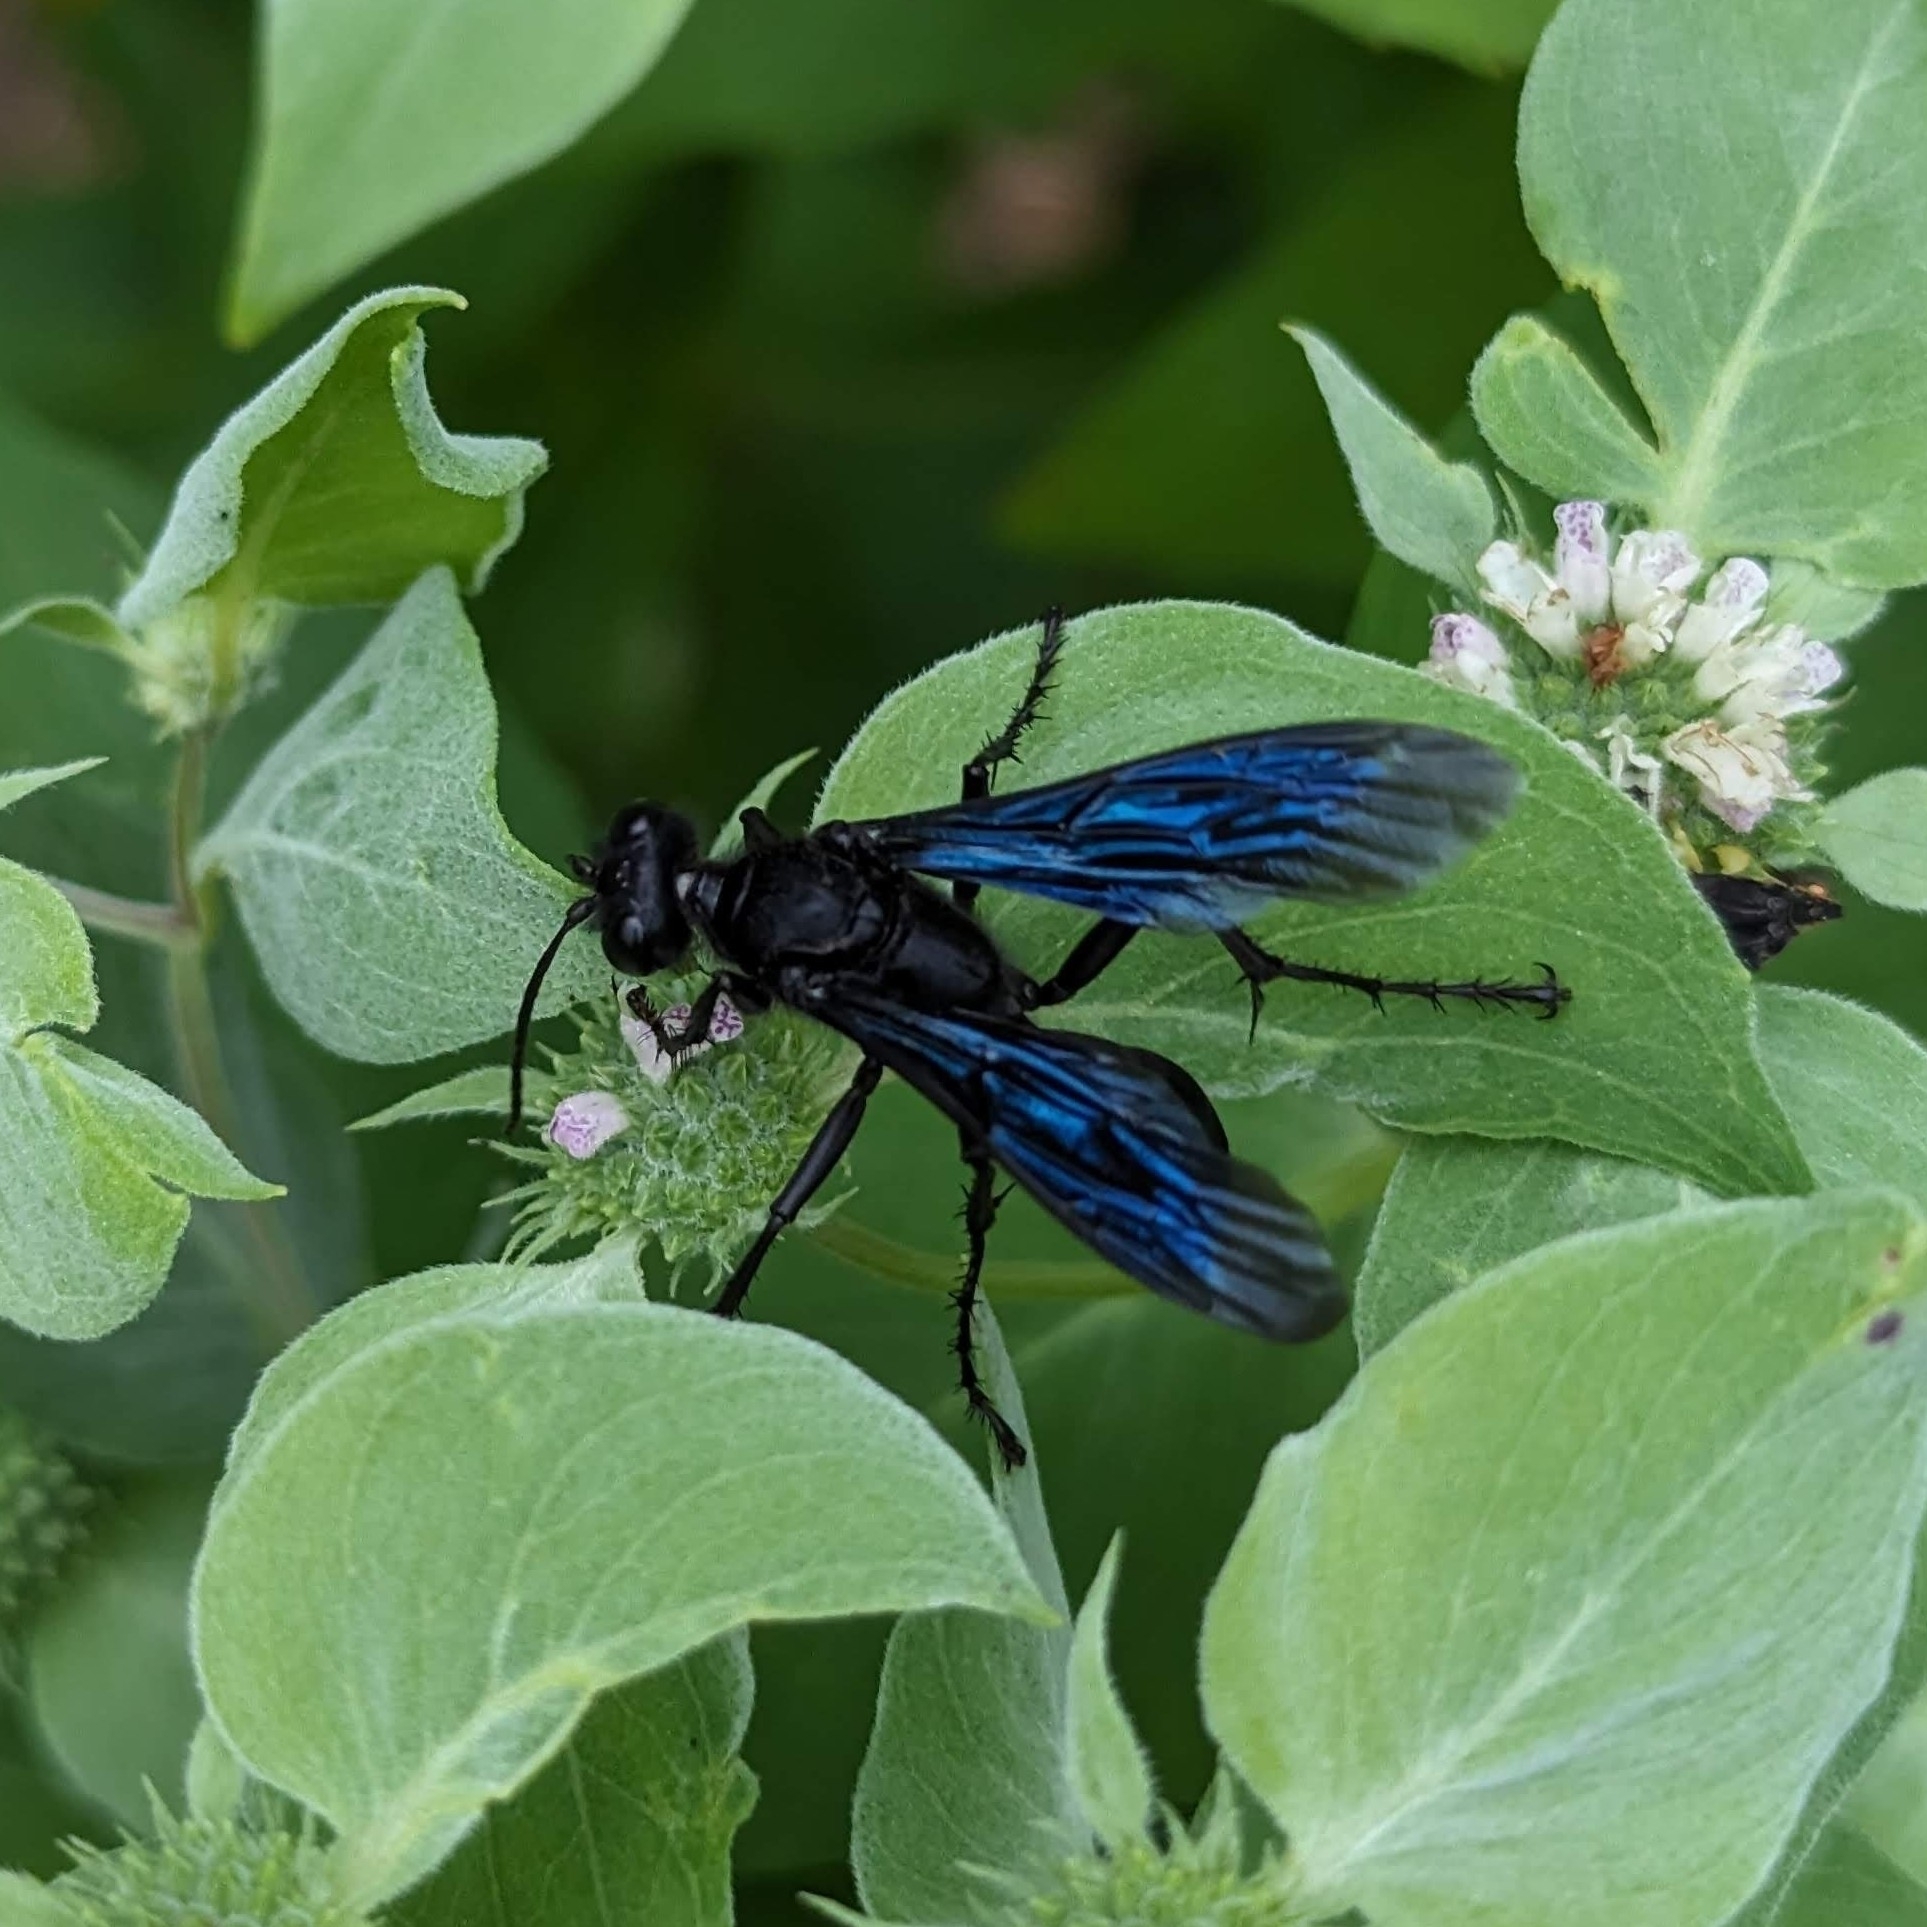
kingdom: Animalia
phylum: Arthropoda
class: Insecta
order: Hymenoptera
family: Sphecidae
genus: Sphex
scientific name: Sphex pensylvanicus
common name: Great black digger wasp
